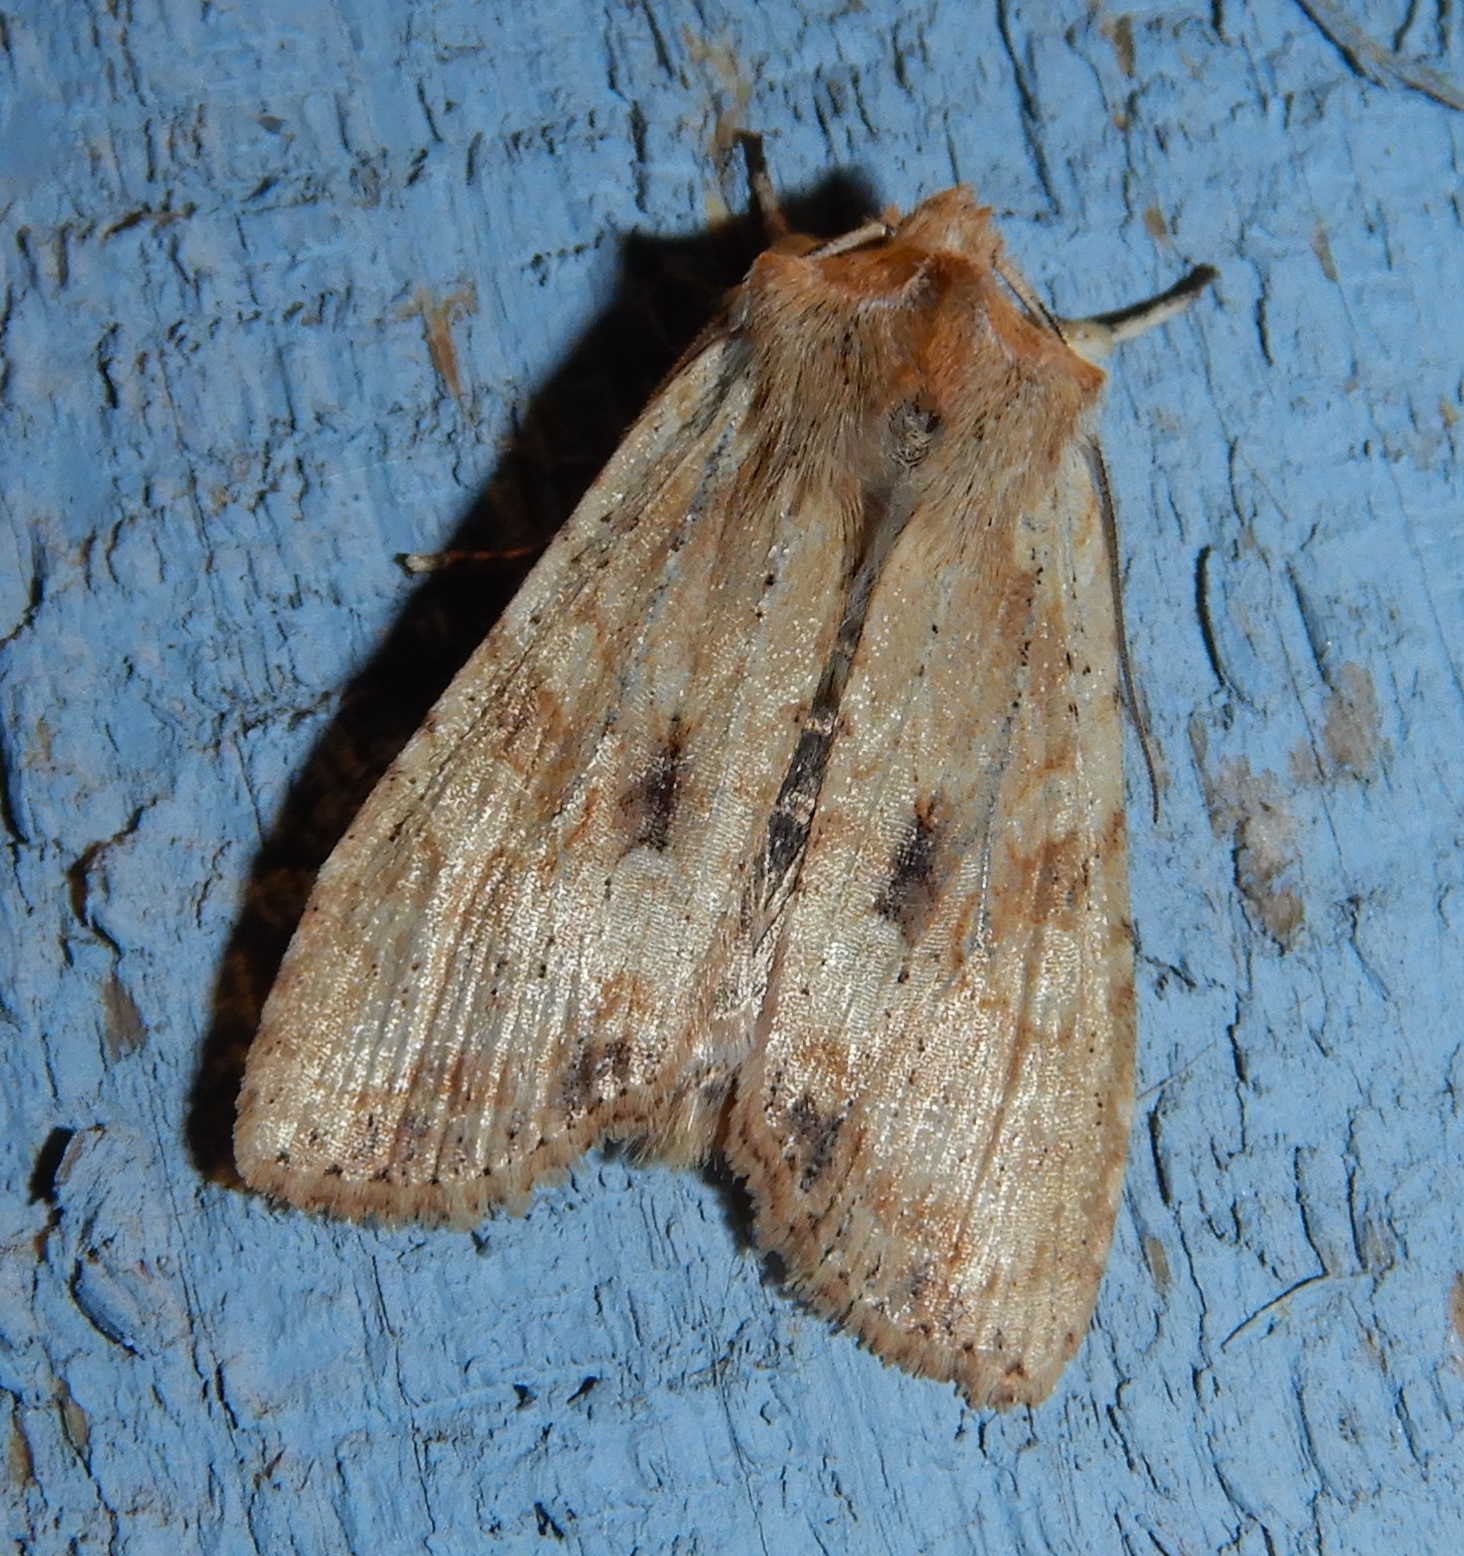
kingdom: Animalia
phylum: Arthropoda
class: Insecta
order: Lepidoptera
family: Noctuidae
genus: Lithophane
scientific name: Lithophane innominata
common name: Nameless pinion moth
